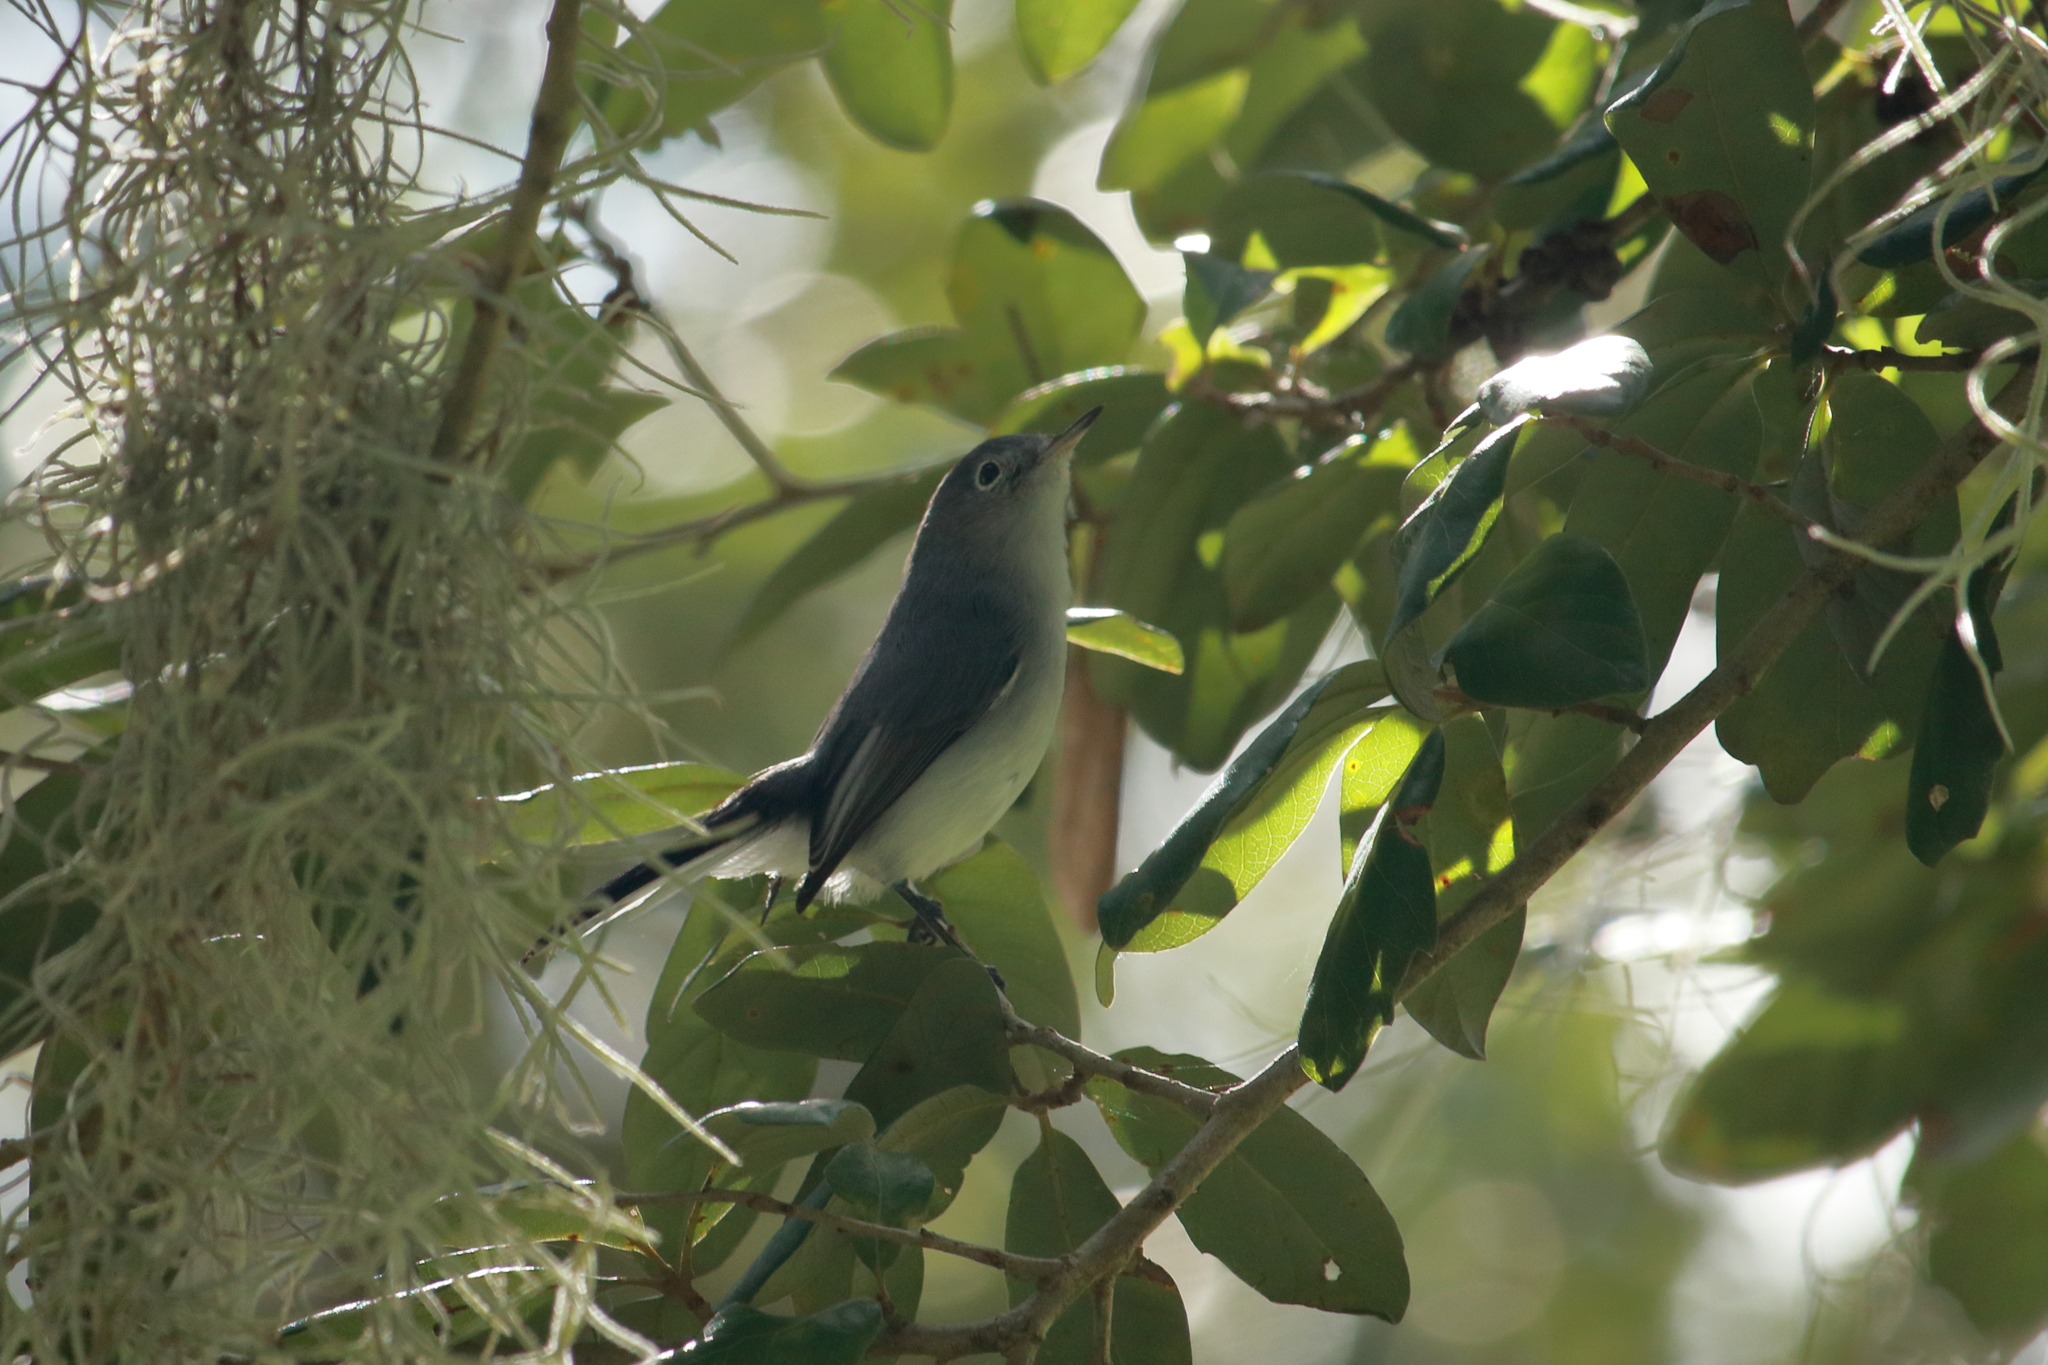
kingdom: Animalia
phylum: Chordata
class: Aves
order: Passeriformes
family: Polioptilidae
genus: Polioptila
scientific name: Polioptila caerulea
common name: Blue-gray gnatcatcher
